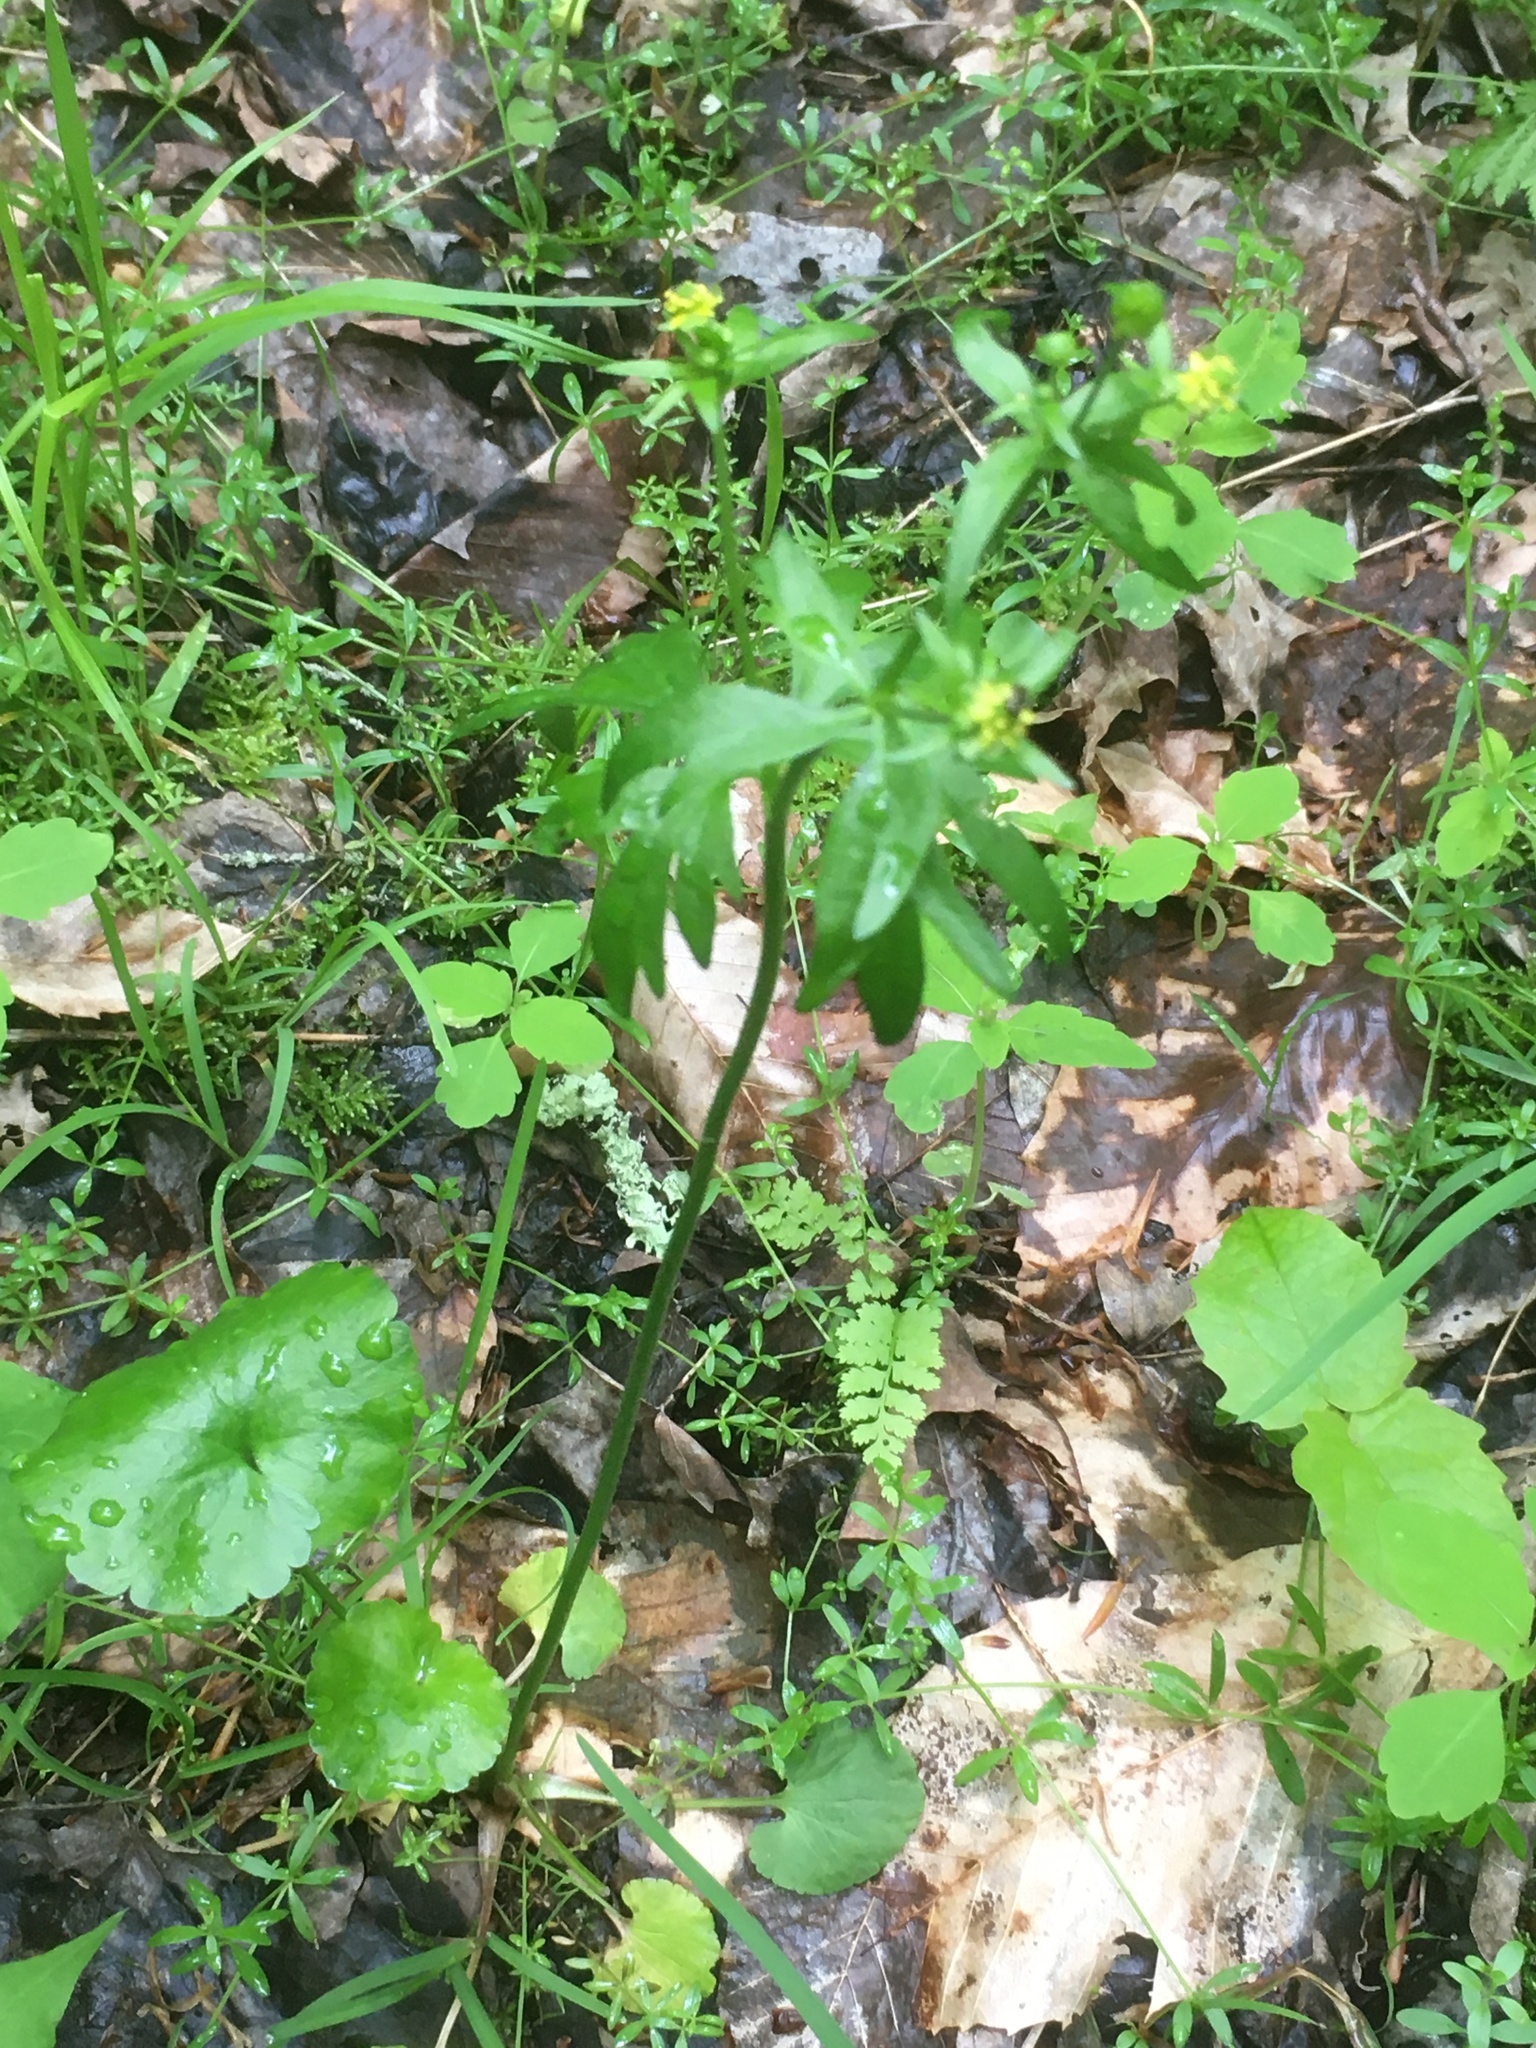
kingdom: Plantae
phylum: Tracheophyta
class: Magnoliopsida
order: Ranunculales
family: Ranunculaceae
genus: Ranunculus
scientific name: Ranunculus abortivus
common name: Early wood buttercup
